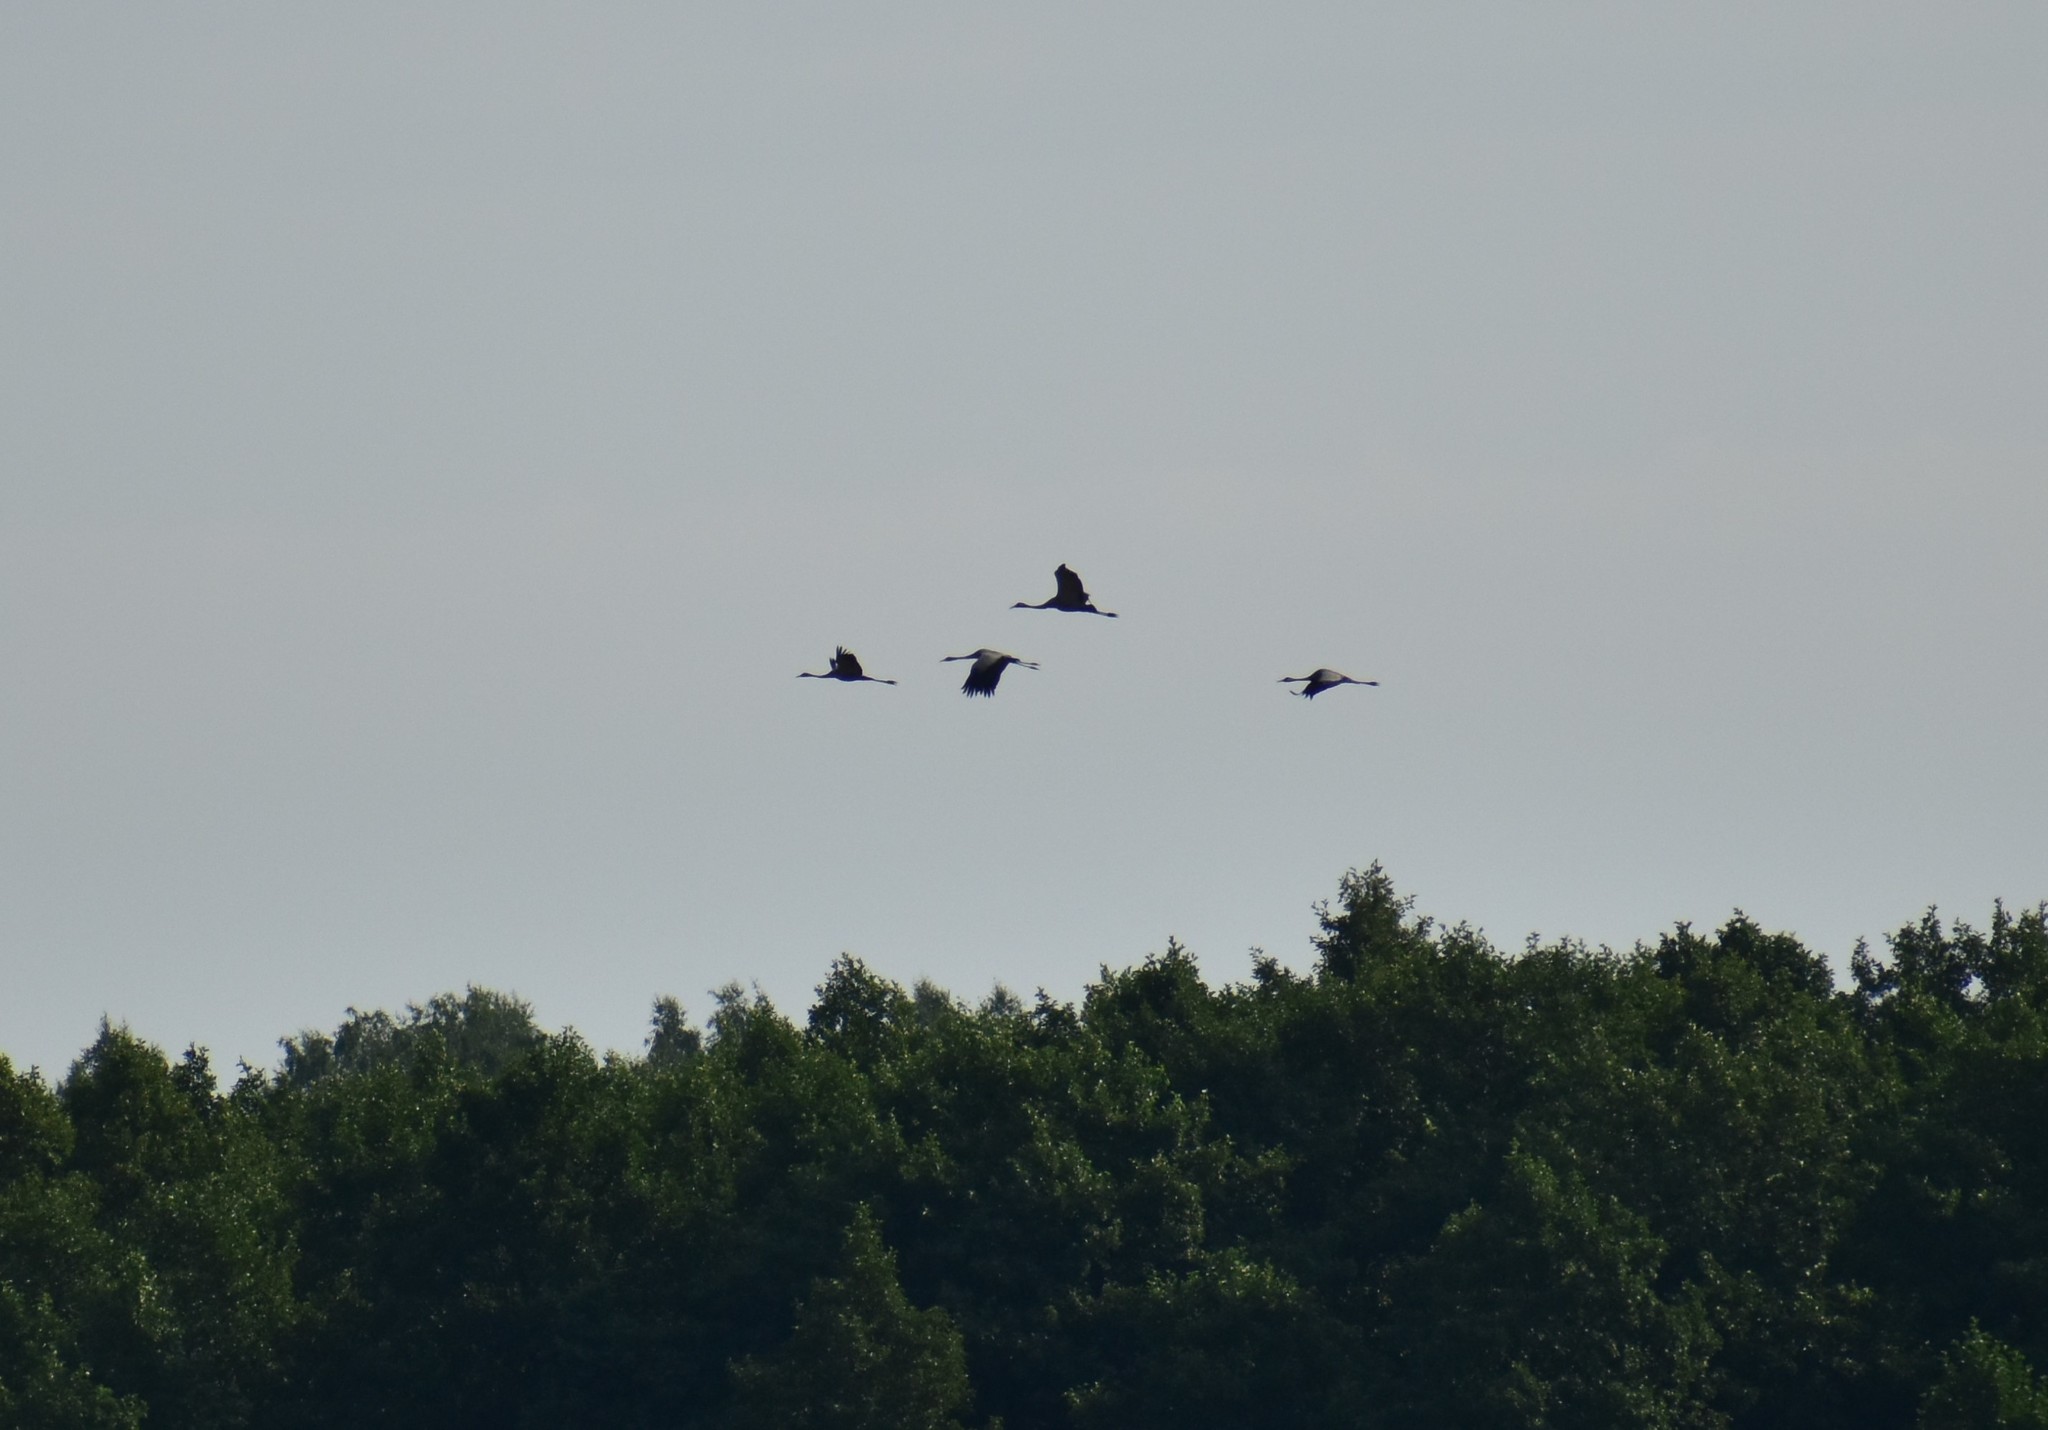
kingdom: Animalia
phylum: Chordata
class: Aves
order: Gruiformes
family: Gruidae
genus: Grus
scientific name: Grus grus
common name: Common crane
